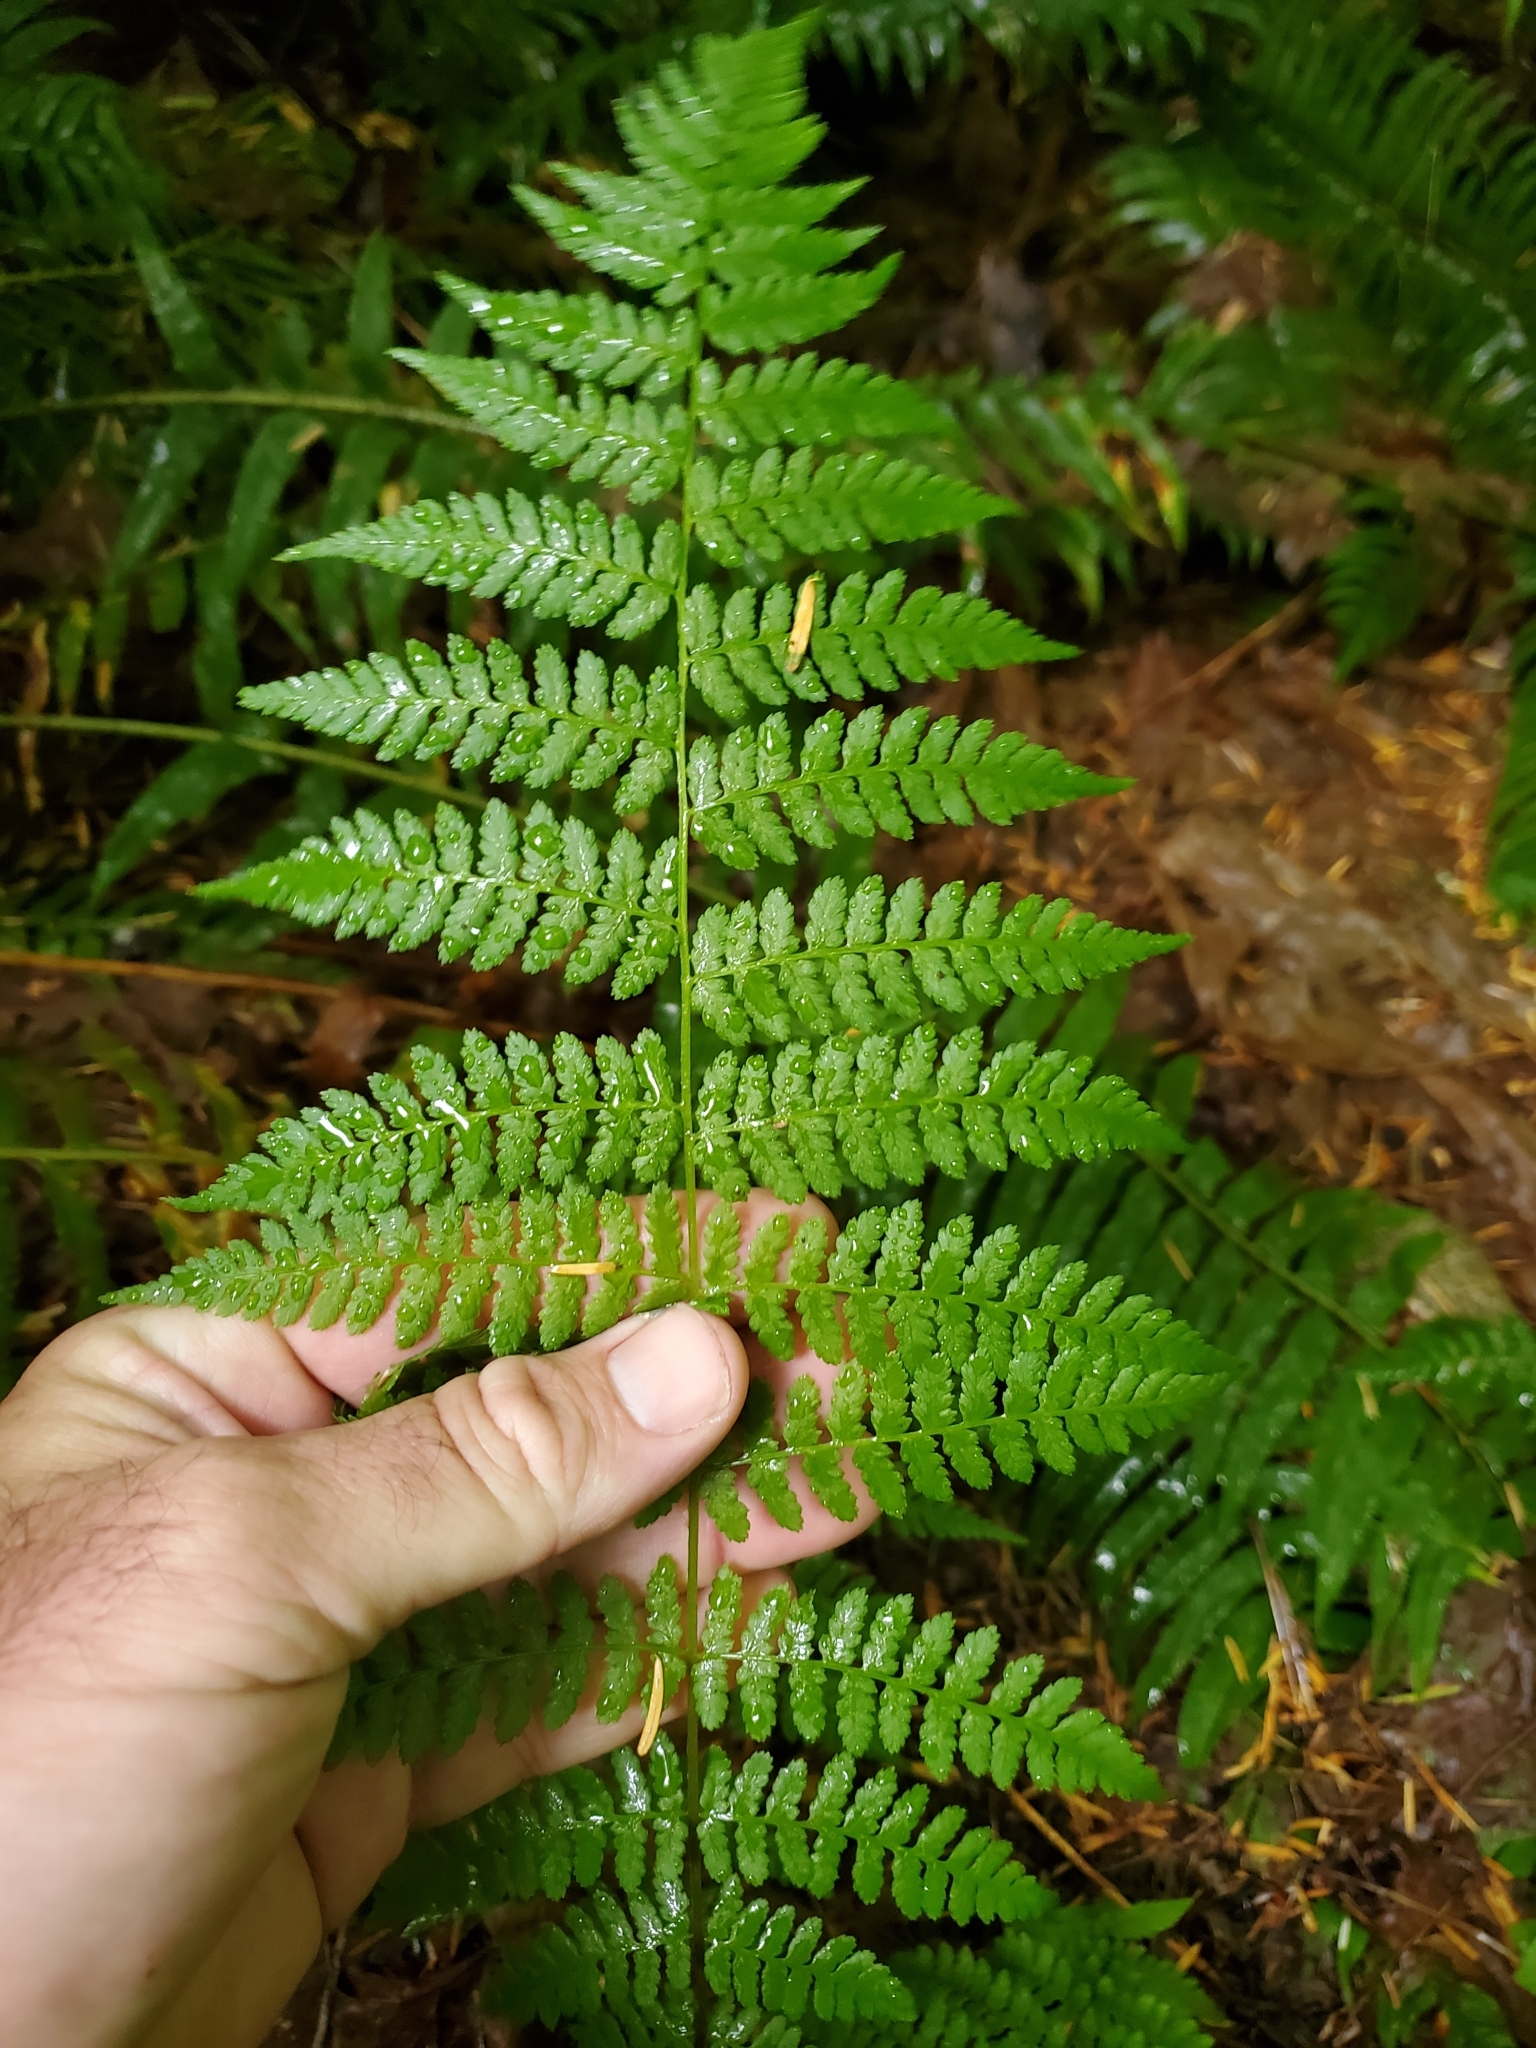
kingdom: Plantae
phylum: Tracheophyta
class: Polypodiopsida
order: Polypodiales
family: Athyriaceae
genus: Athyrium
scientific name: Athyrium filix-femina
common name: Lady fern
